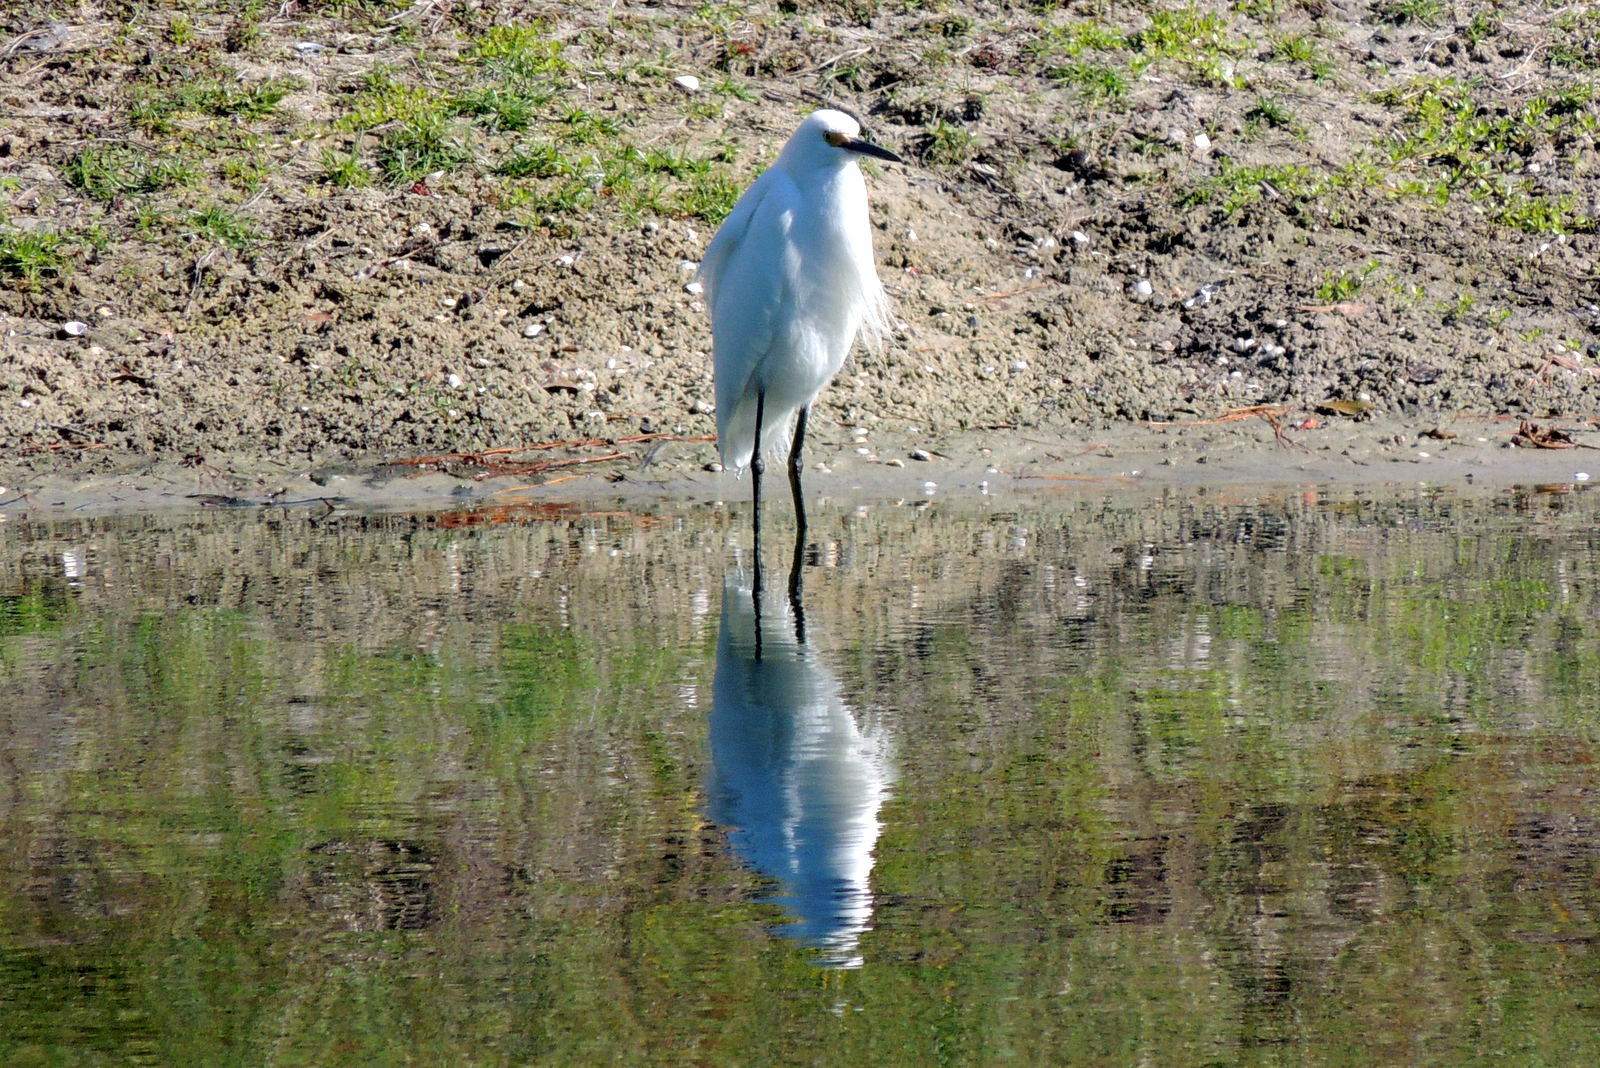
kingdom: Animalia
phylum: Chordata
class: Aves
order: Pelecaniformes
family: Ardeidae
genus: Egretta
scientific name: Egretta thula
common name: Snowy egret
